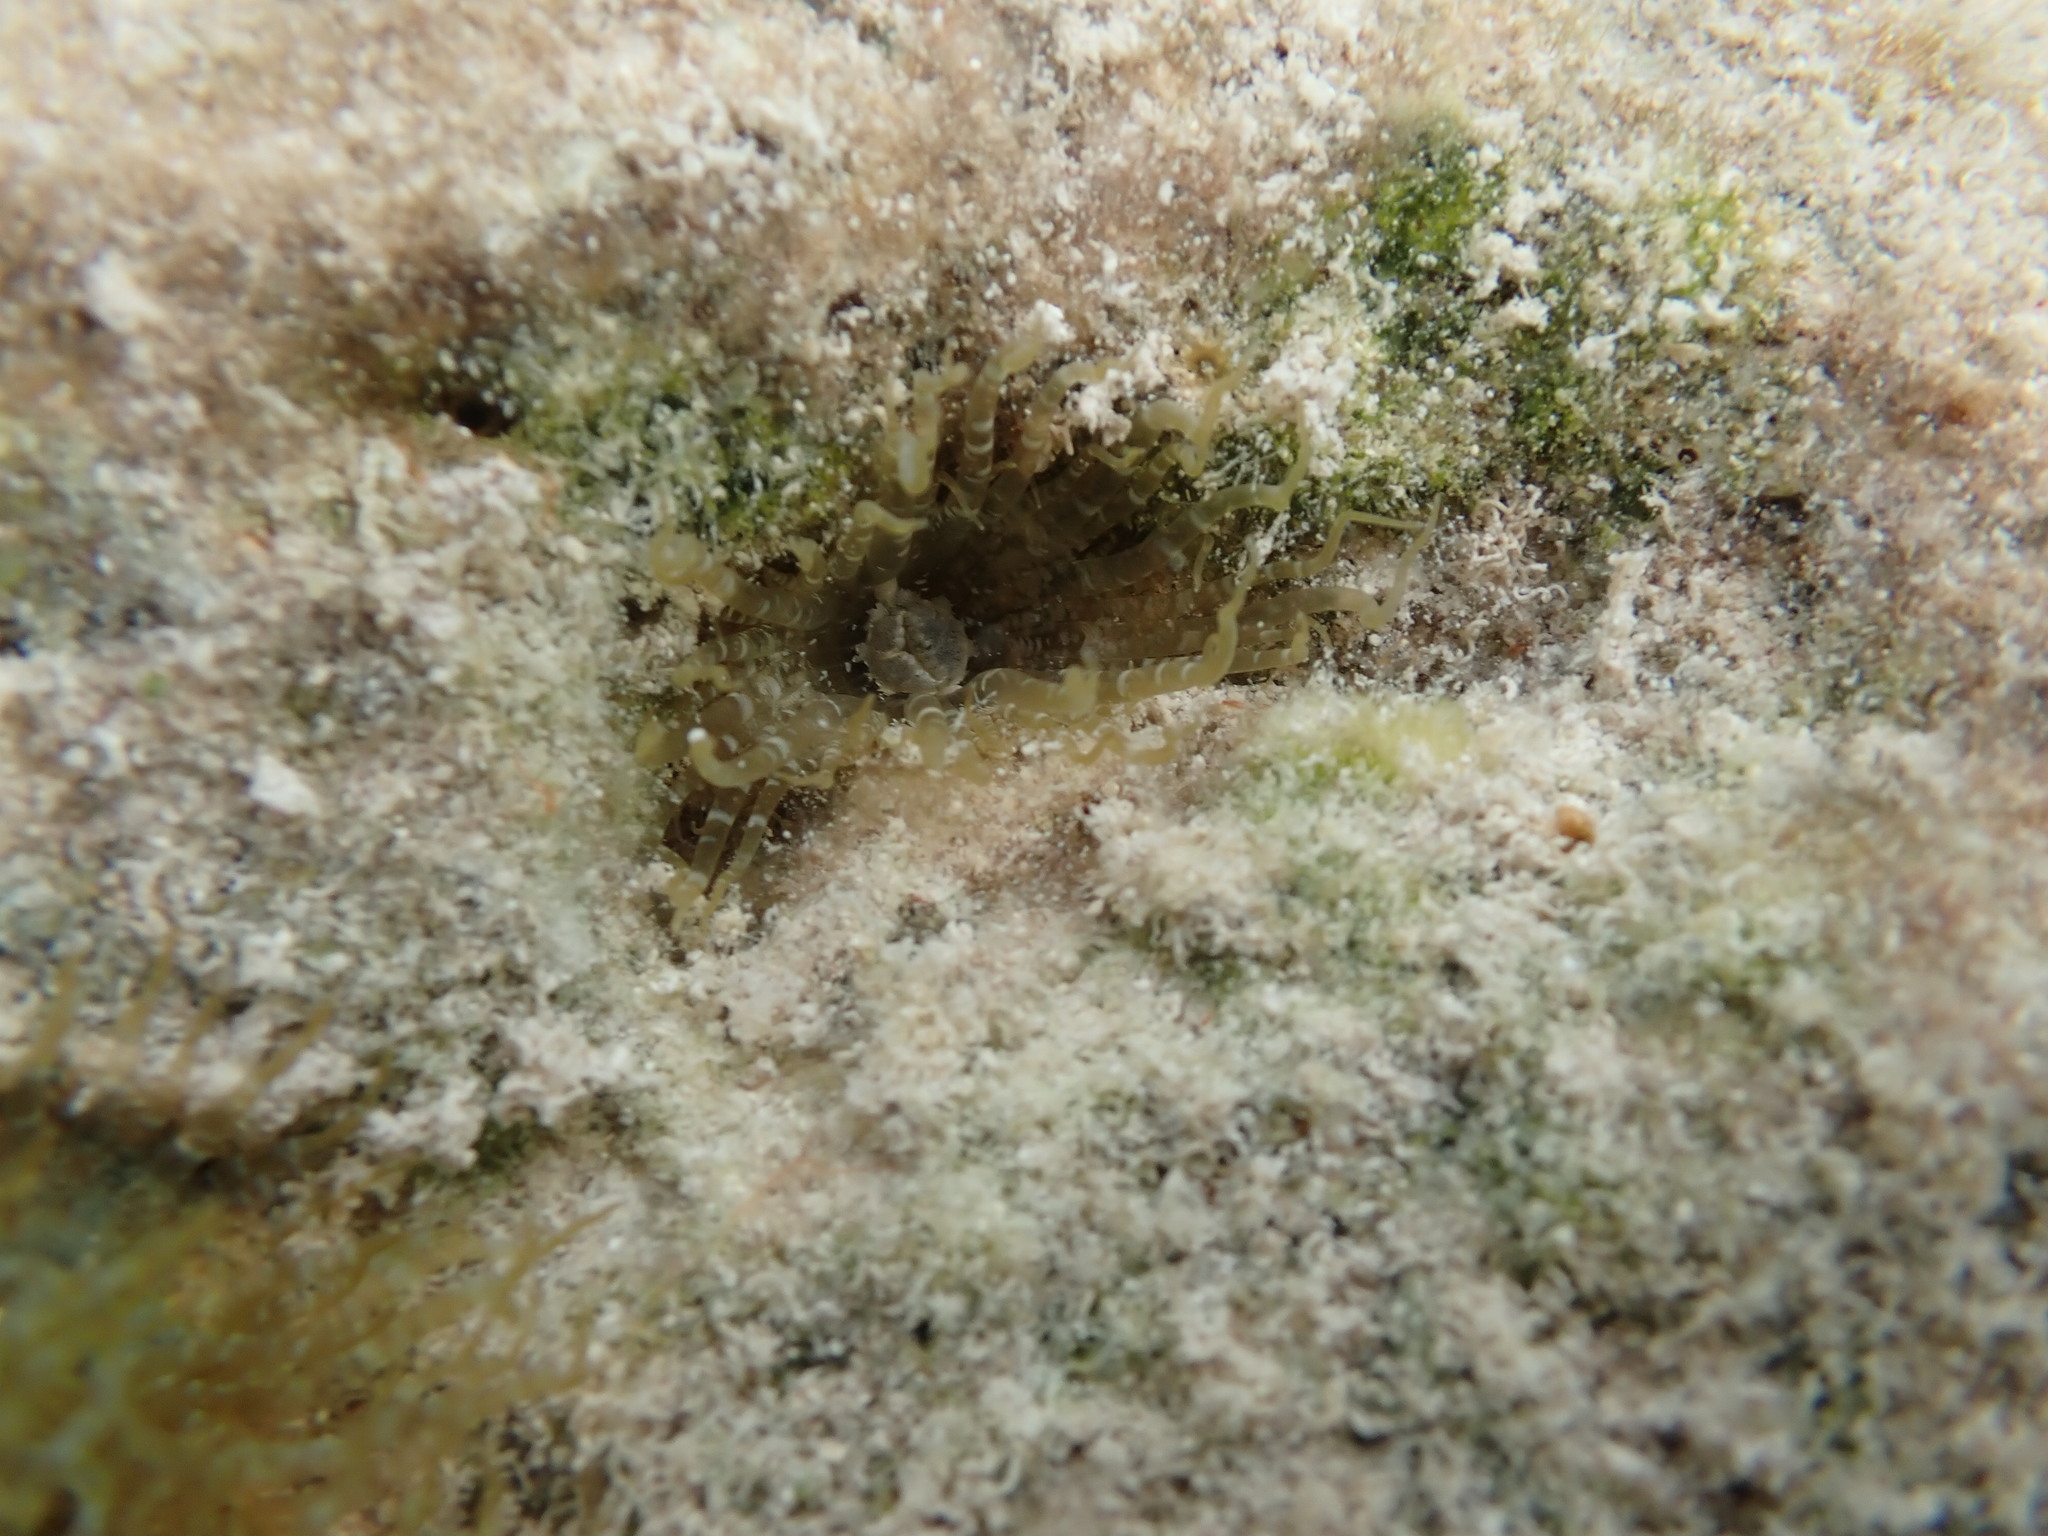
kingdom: Animalia
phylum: Cnidaria
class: Anthozoa
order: Actiniaria
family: Aiptasiidae
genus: Exaiptasia
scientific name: Exaiptasia diaphana
